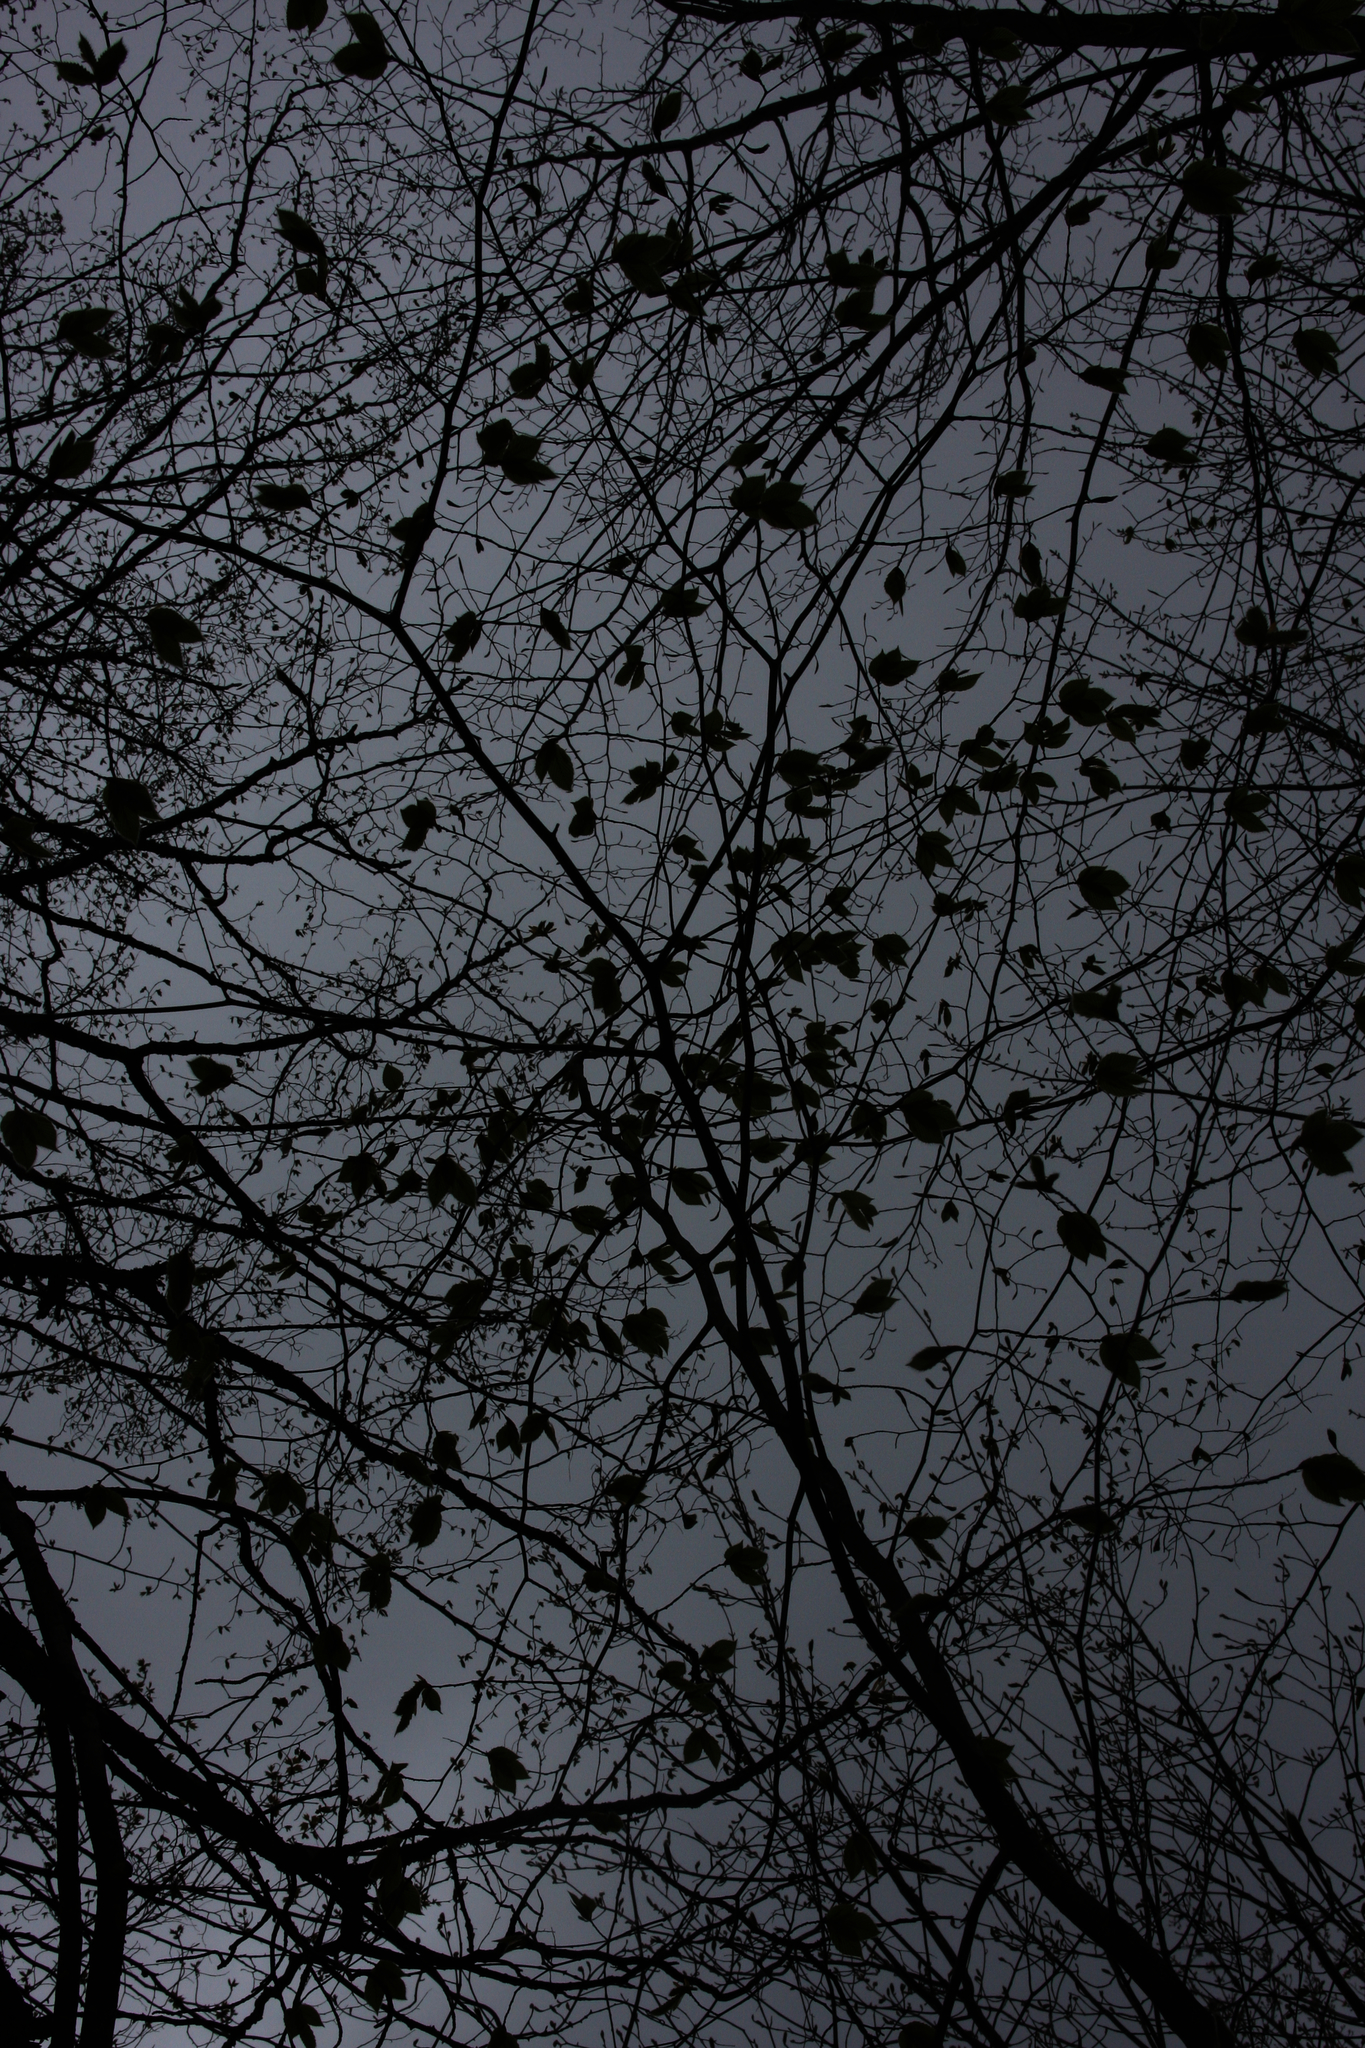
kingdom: Plantae
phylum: Tracheophyta
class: Magnoliopsida
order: Fagales
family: Fagaceae
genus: Fagus
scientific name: Fagus grandifolia
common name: American beech
